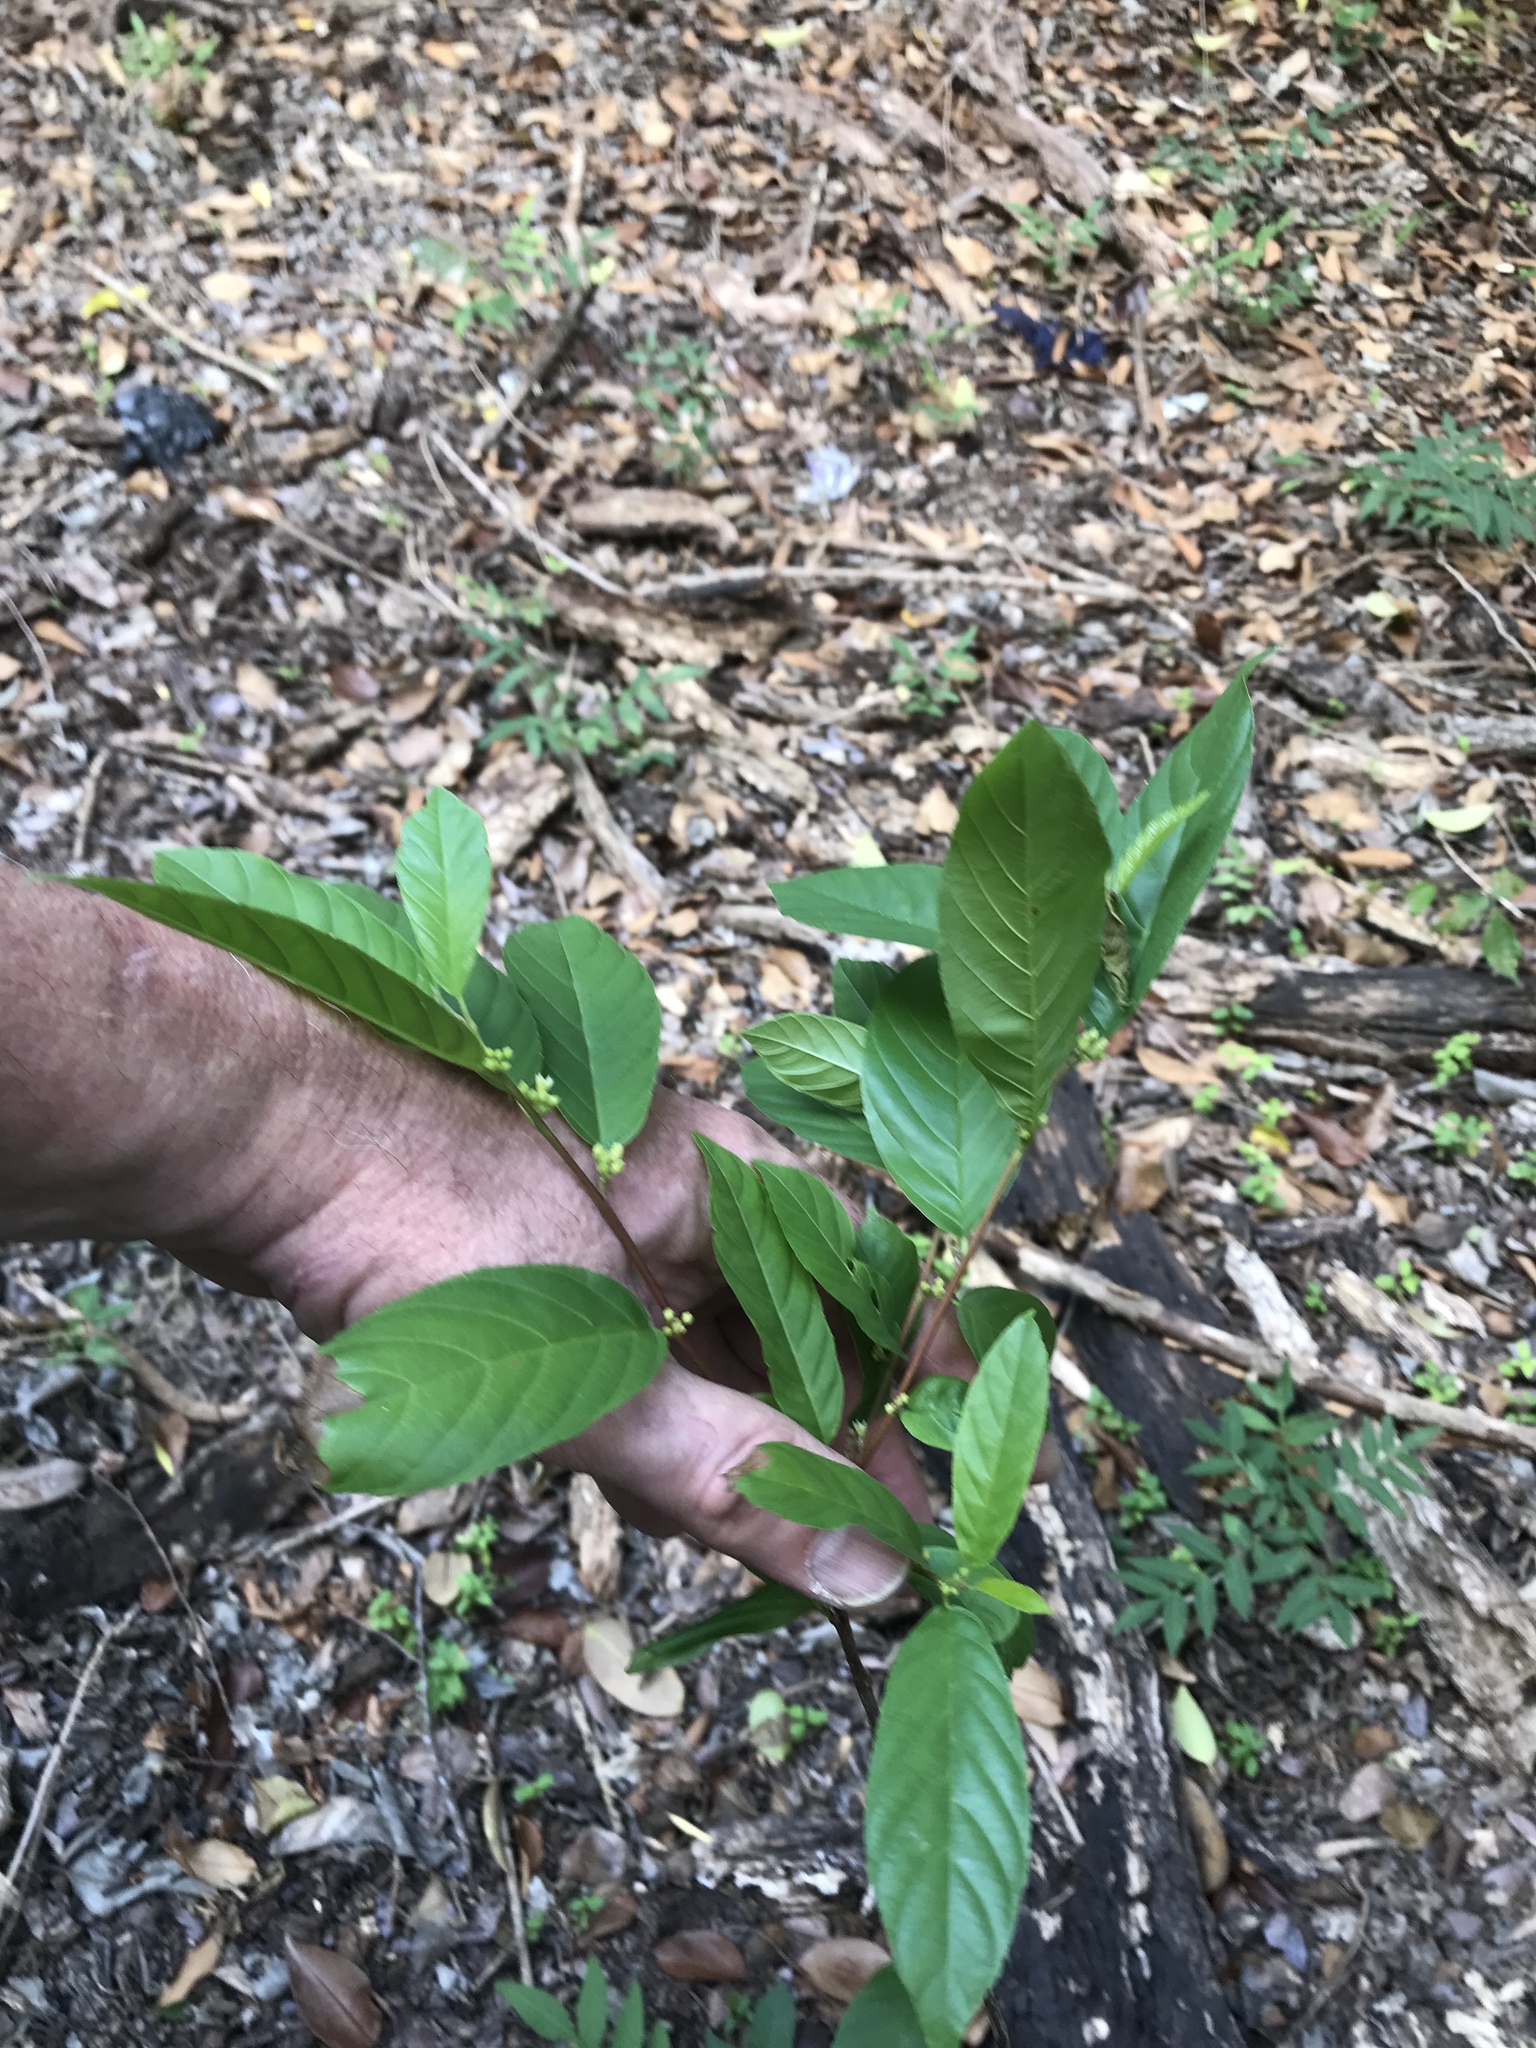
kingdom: Plantae
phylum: Tracheophyta
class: Magnoliopsida
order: Rosales
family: Rhamnaceae
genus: Frangula
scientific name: Frangula caroliniana
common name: Carolina buckthorn
